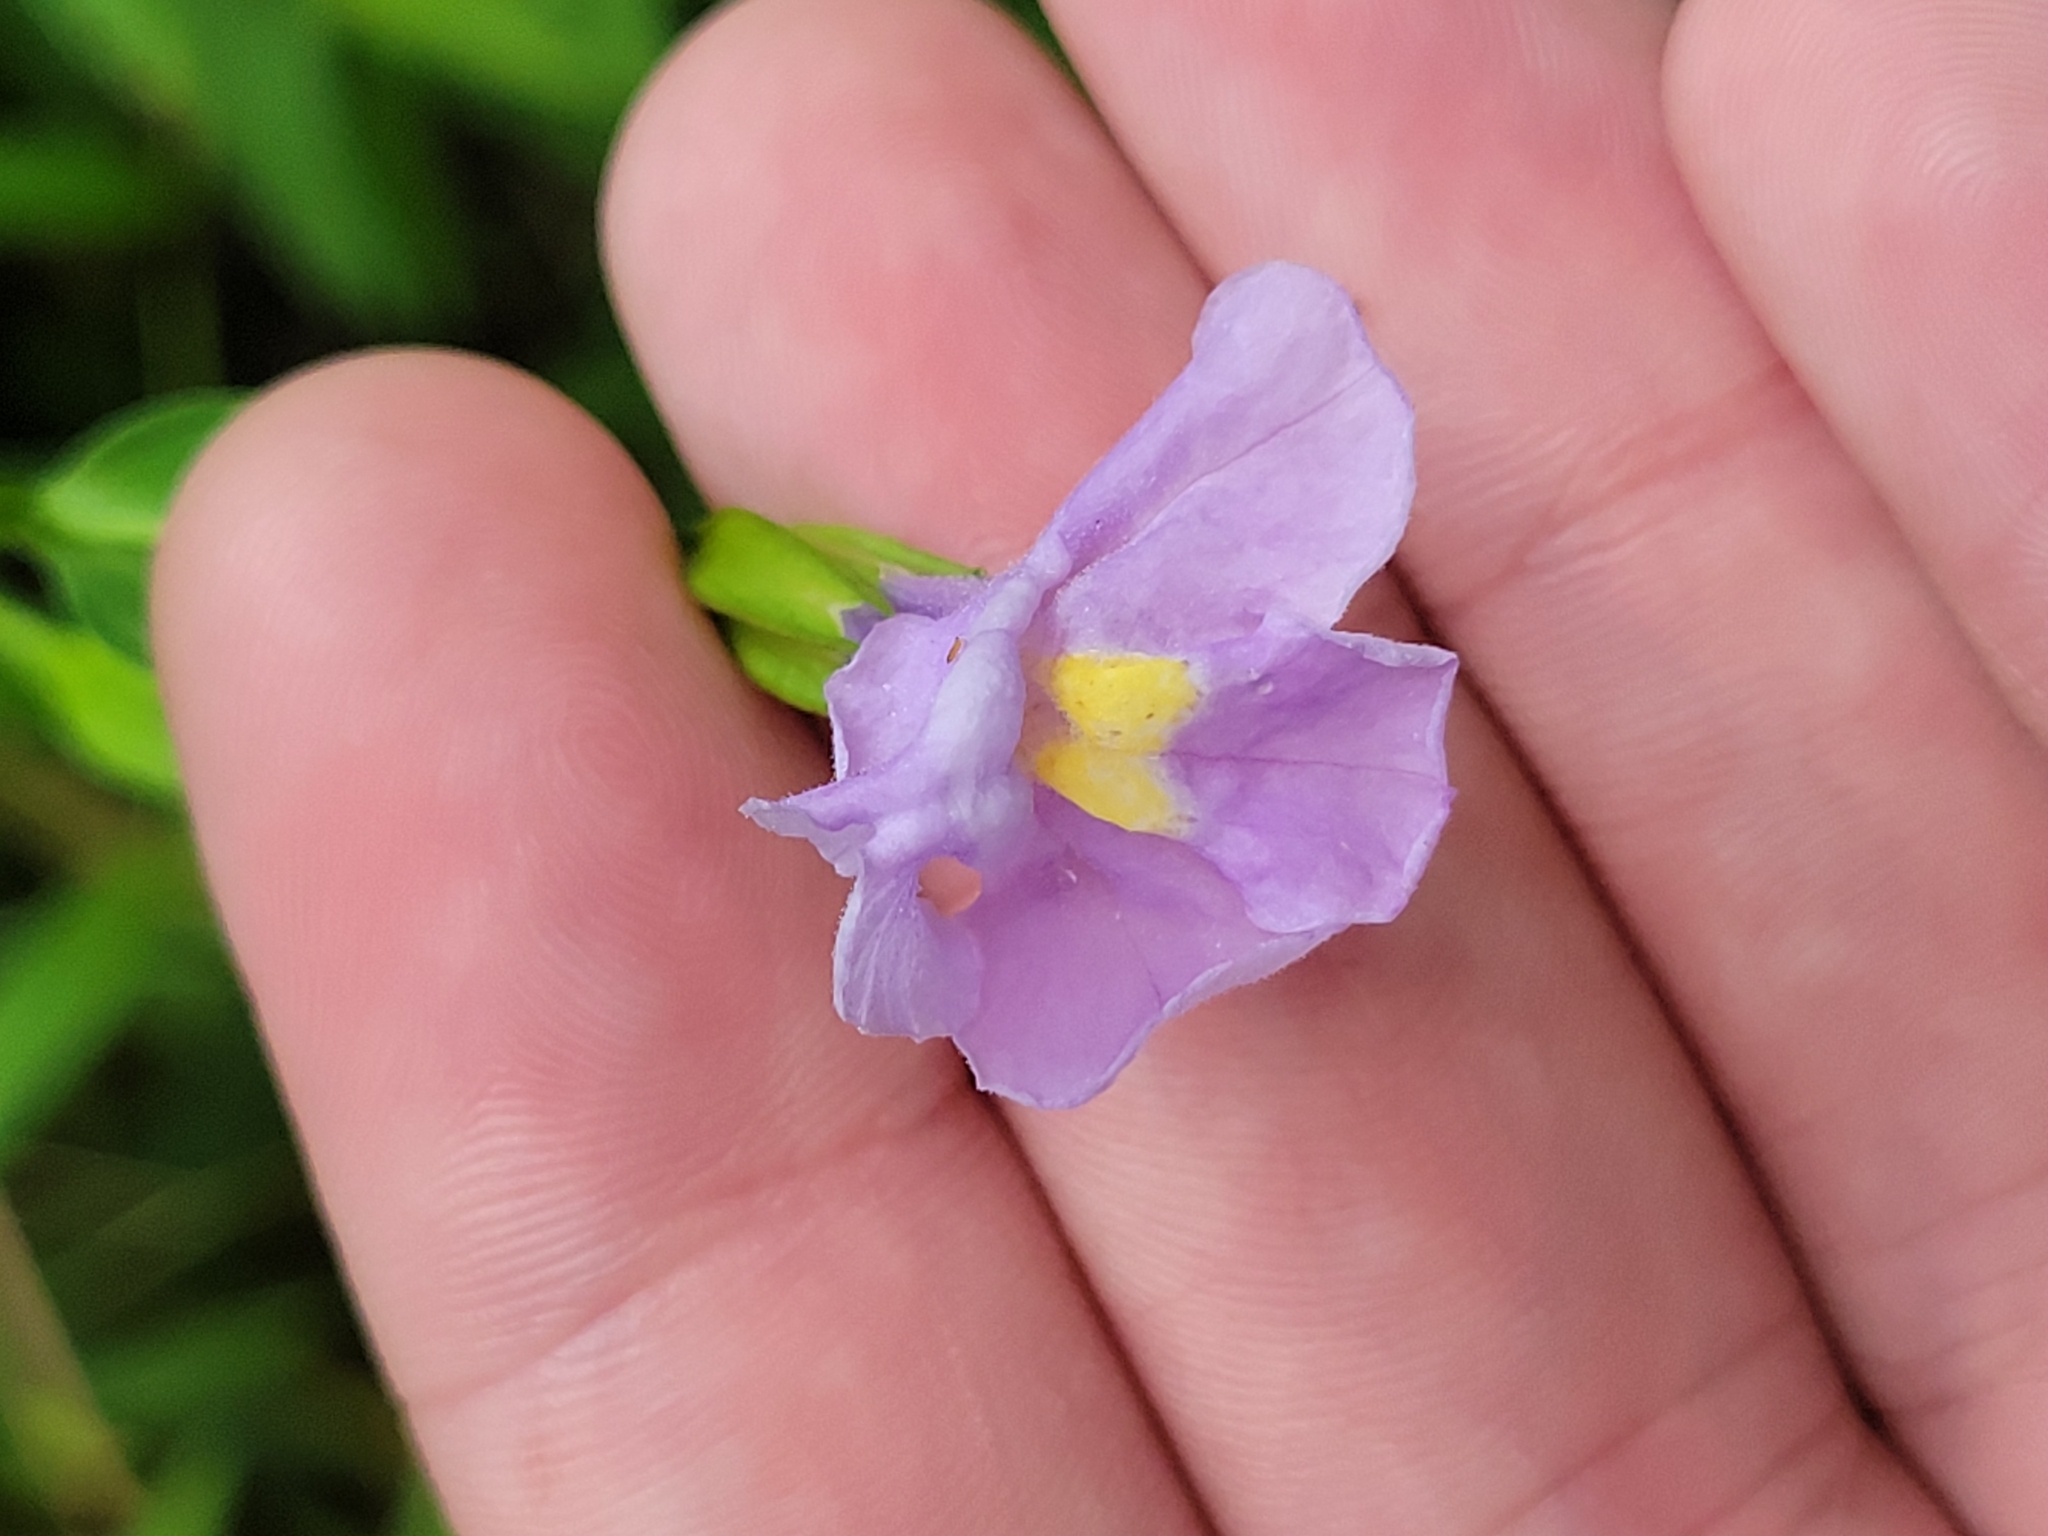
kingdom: Plantae
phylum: Tracheophyta
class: Magnoliopsida
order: Lamiales
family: Phrymaceae
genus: Mimulus
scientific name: Mimulus ringens
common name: Allegheny monkeyflower
